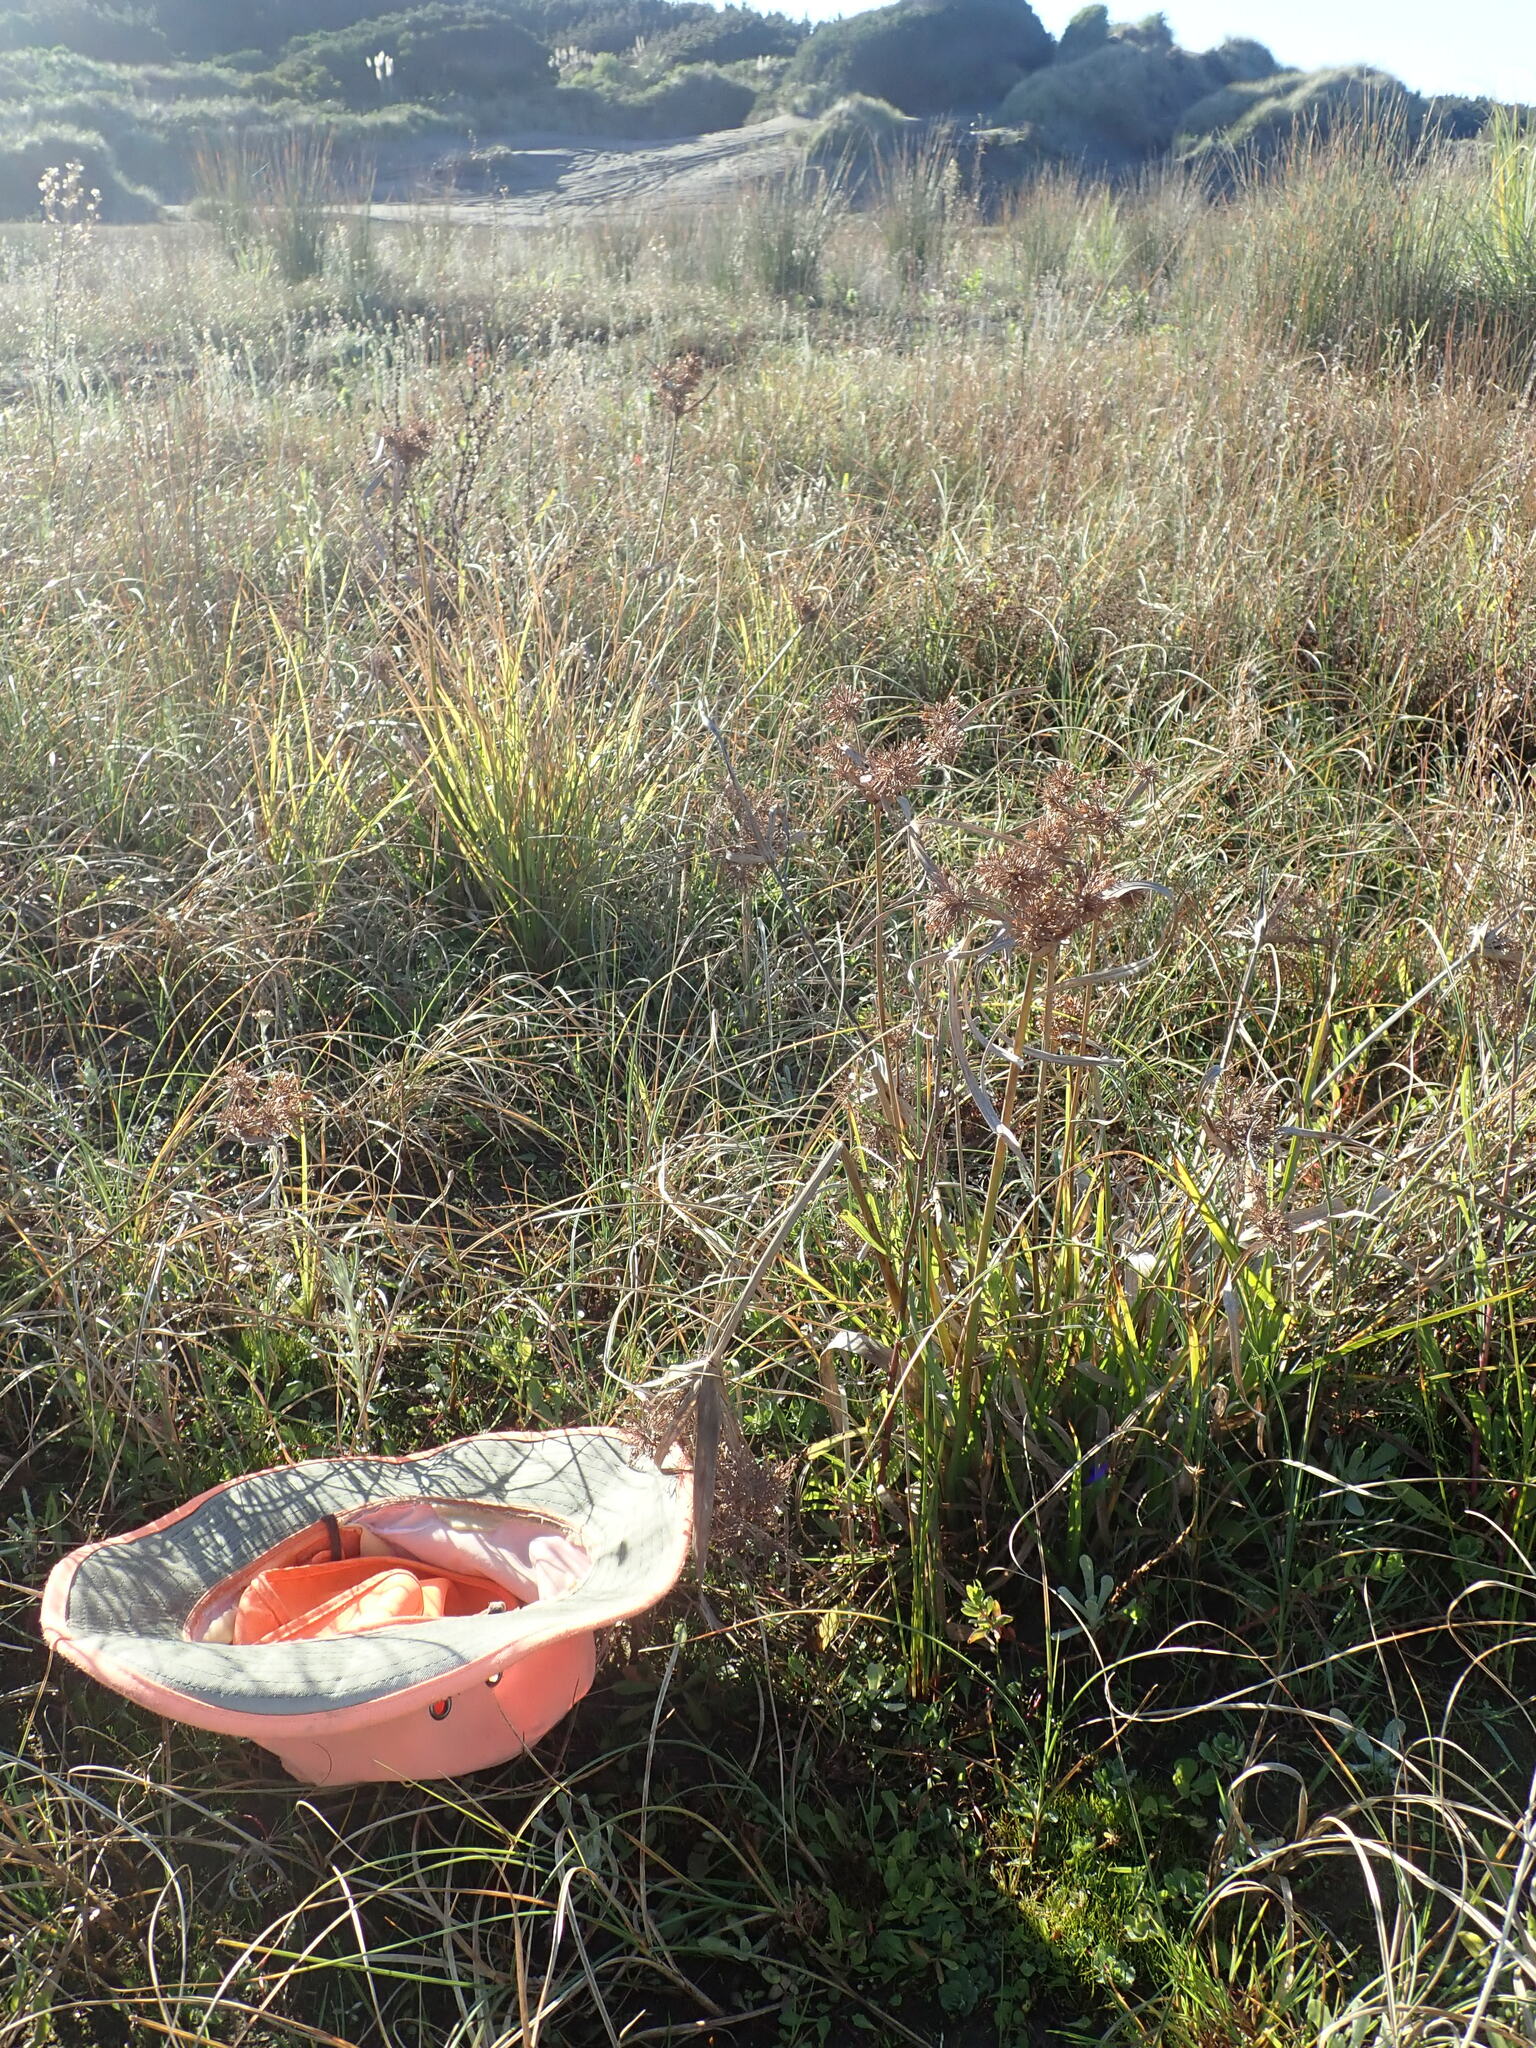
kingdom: Plantae
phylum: Tracheophyta
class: Magnoliopsida
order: Asterales
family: Campanulaceae
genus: Lobelia
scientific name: Lobelia anceps
